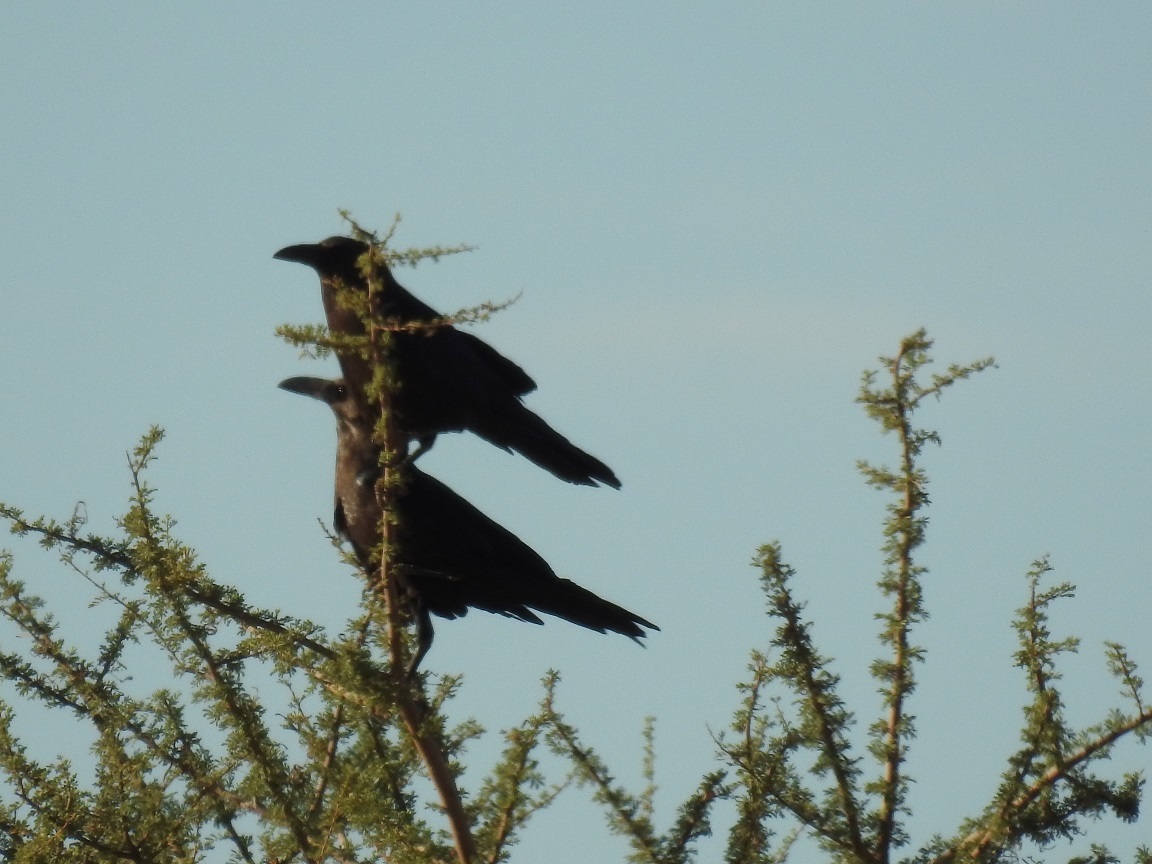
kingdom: Animalia
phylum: Chordata
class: Aves
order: Passeriformes
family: Corvidae
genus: Corvus
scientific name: Corvus ruficollis
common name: Brown-necked raven
